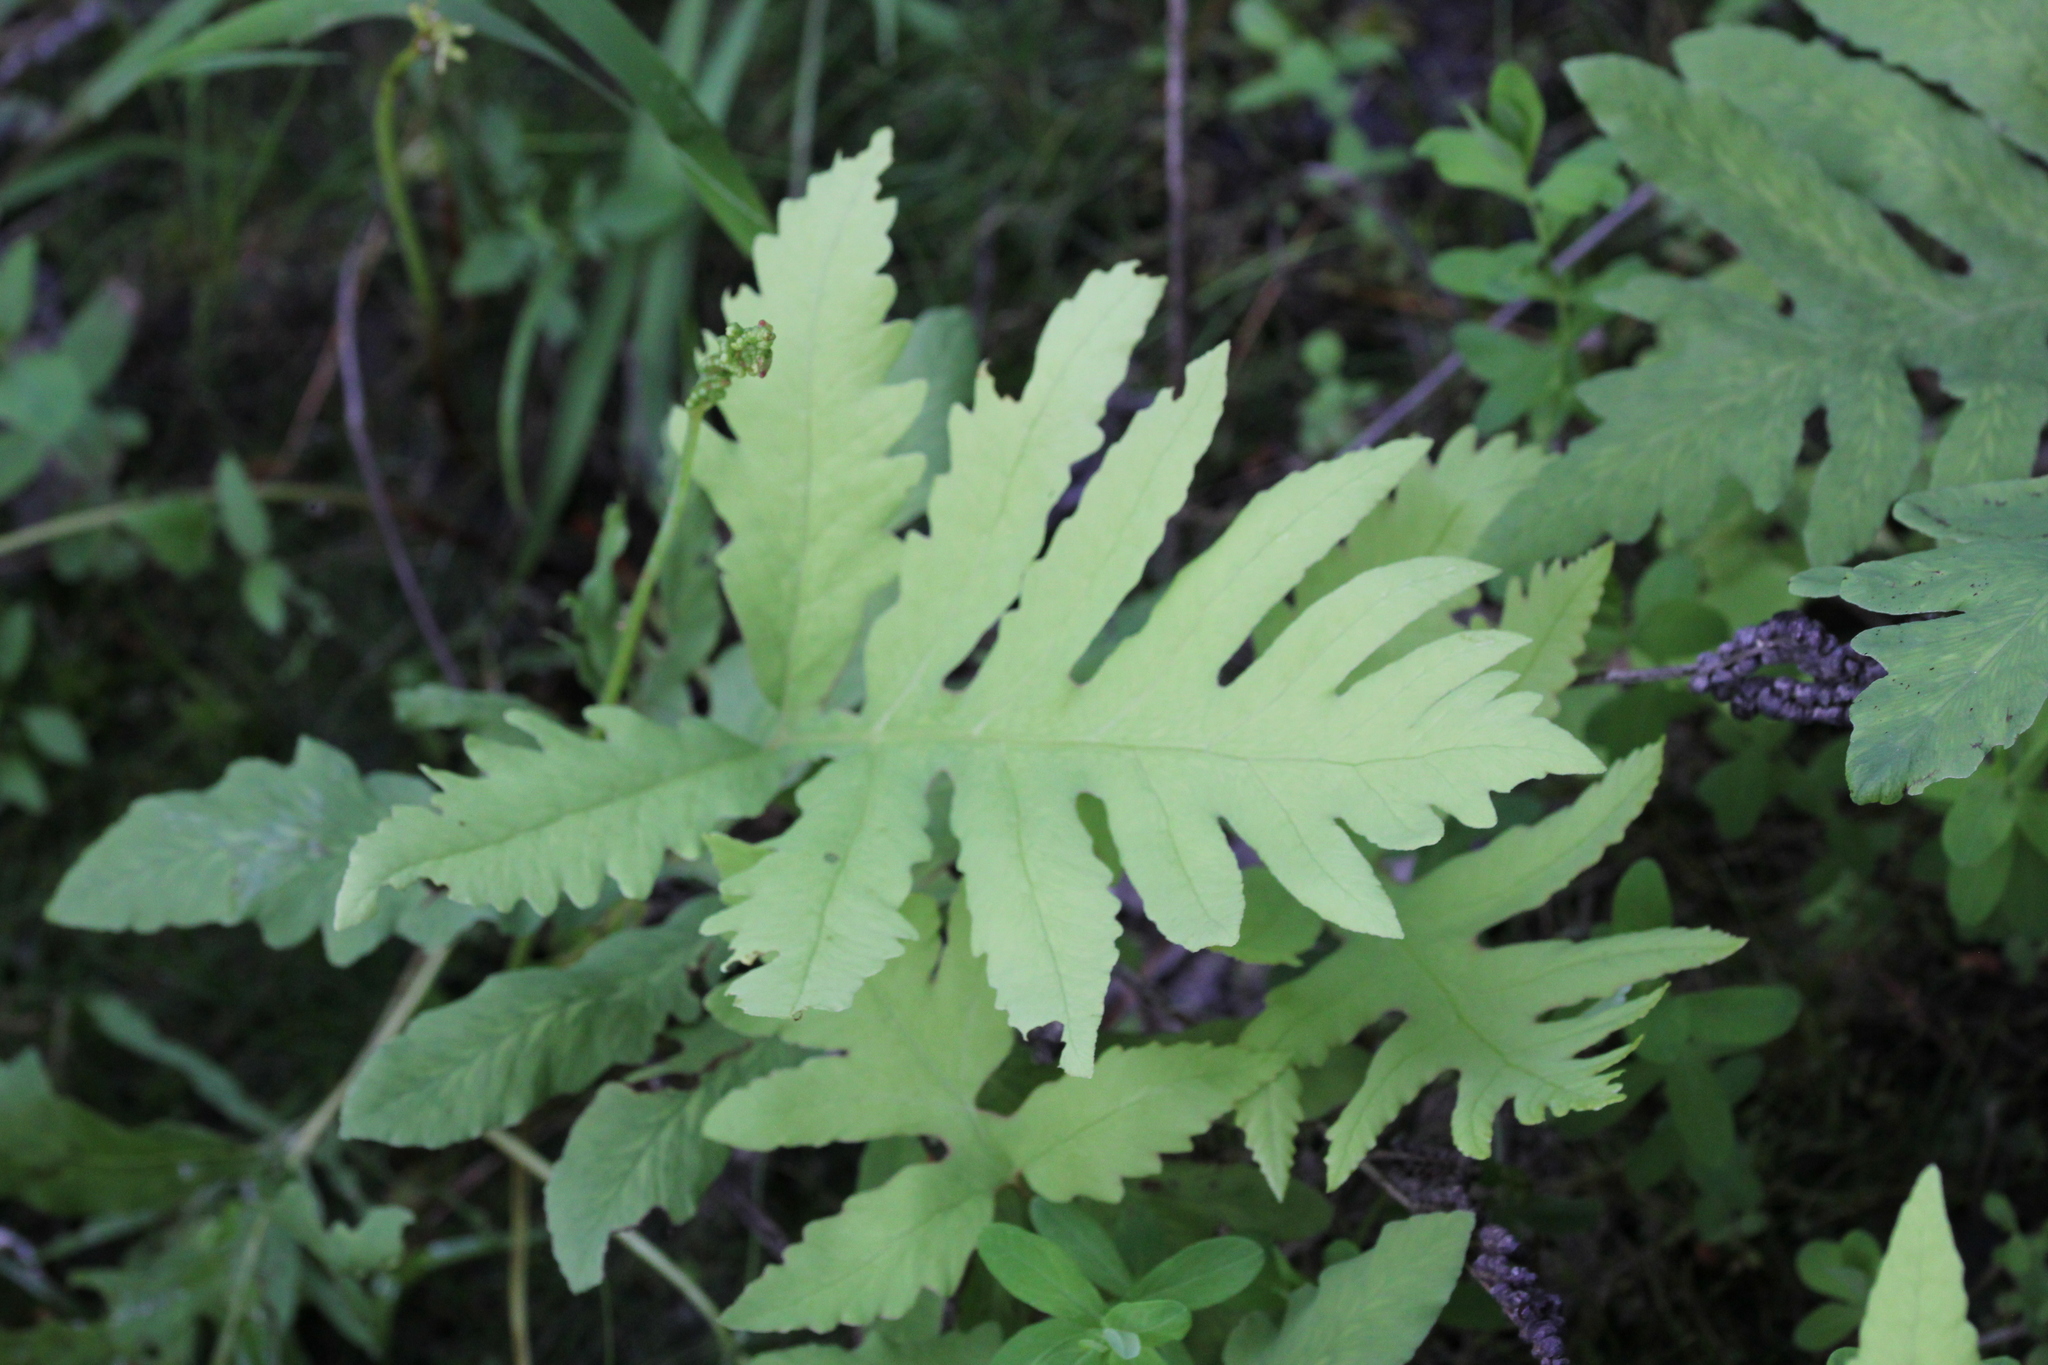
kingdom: Plantae
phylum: Tracheophyta
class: Polypodiopsida
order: Polypodiales
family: Onocleaceae
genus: Onoclea
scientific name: Onoclea sensibilis
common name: Sensitive fern
